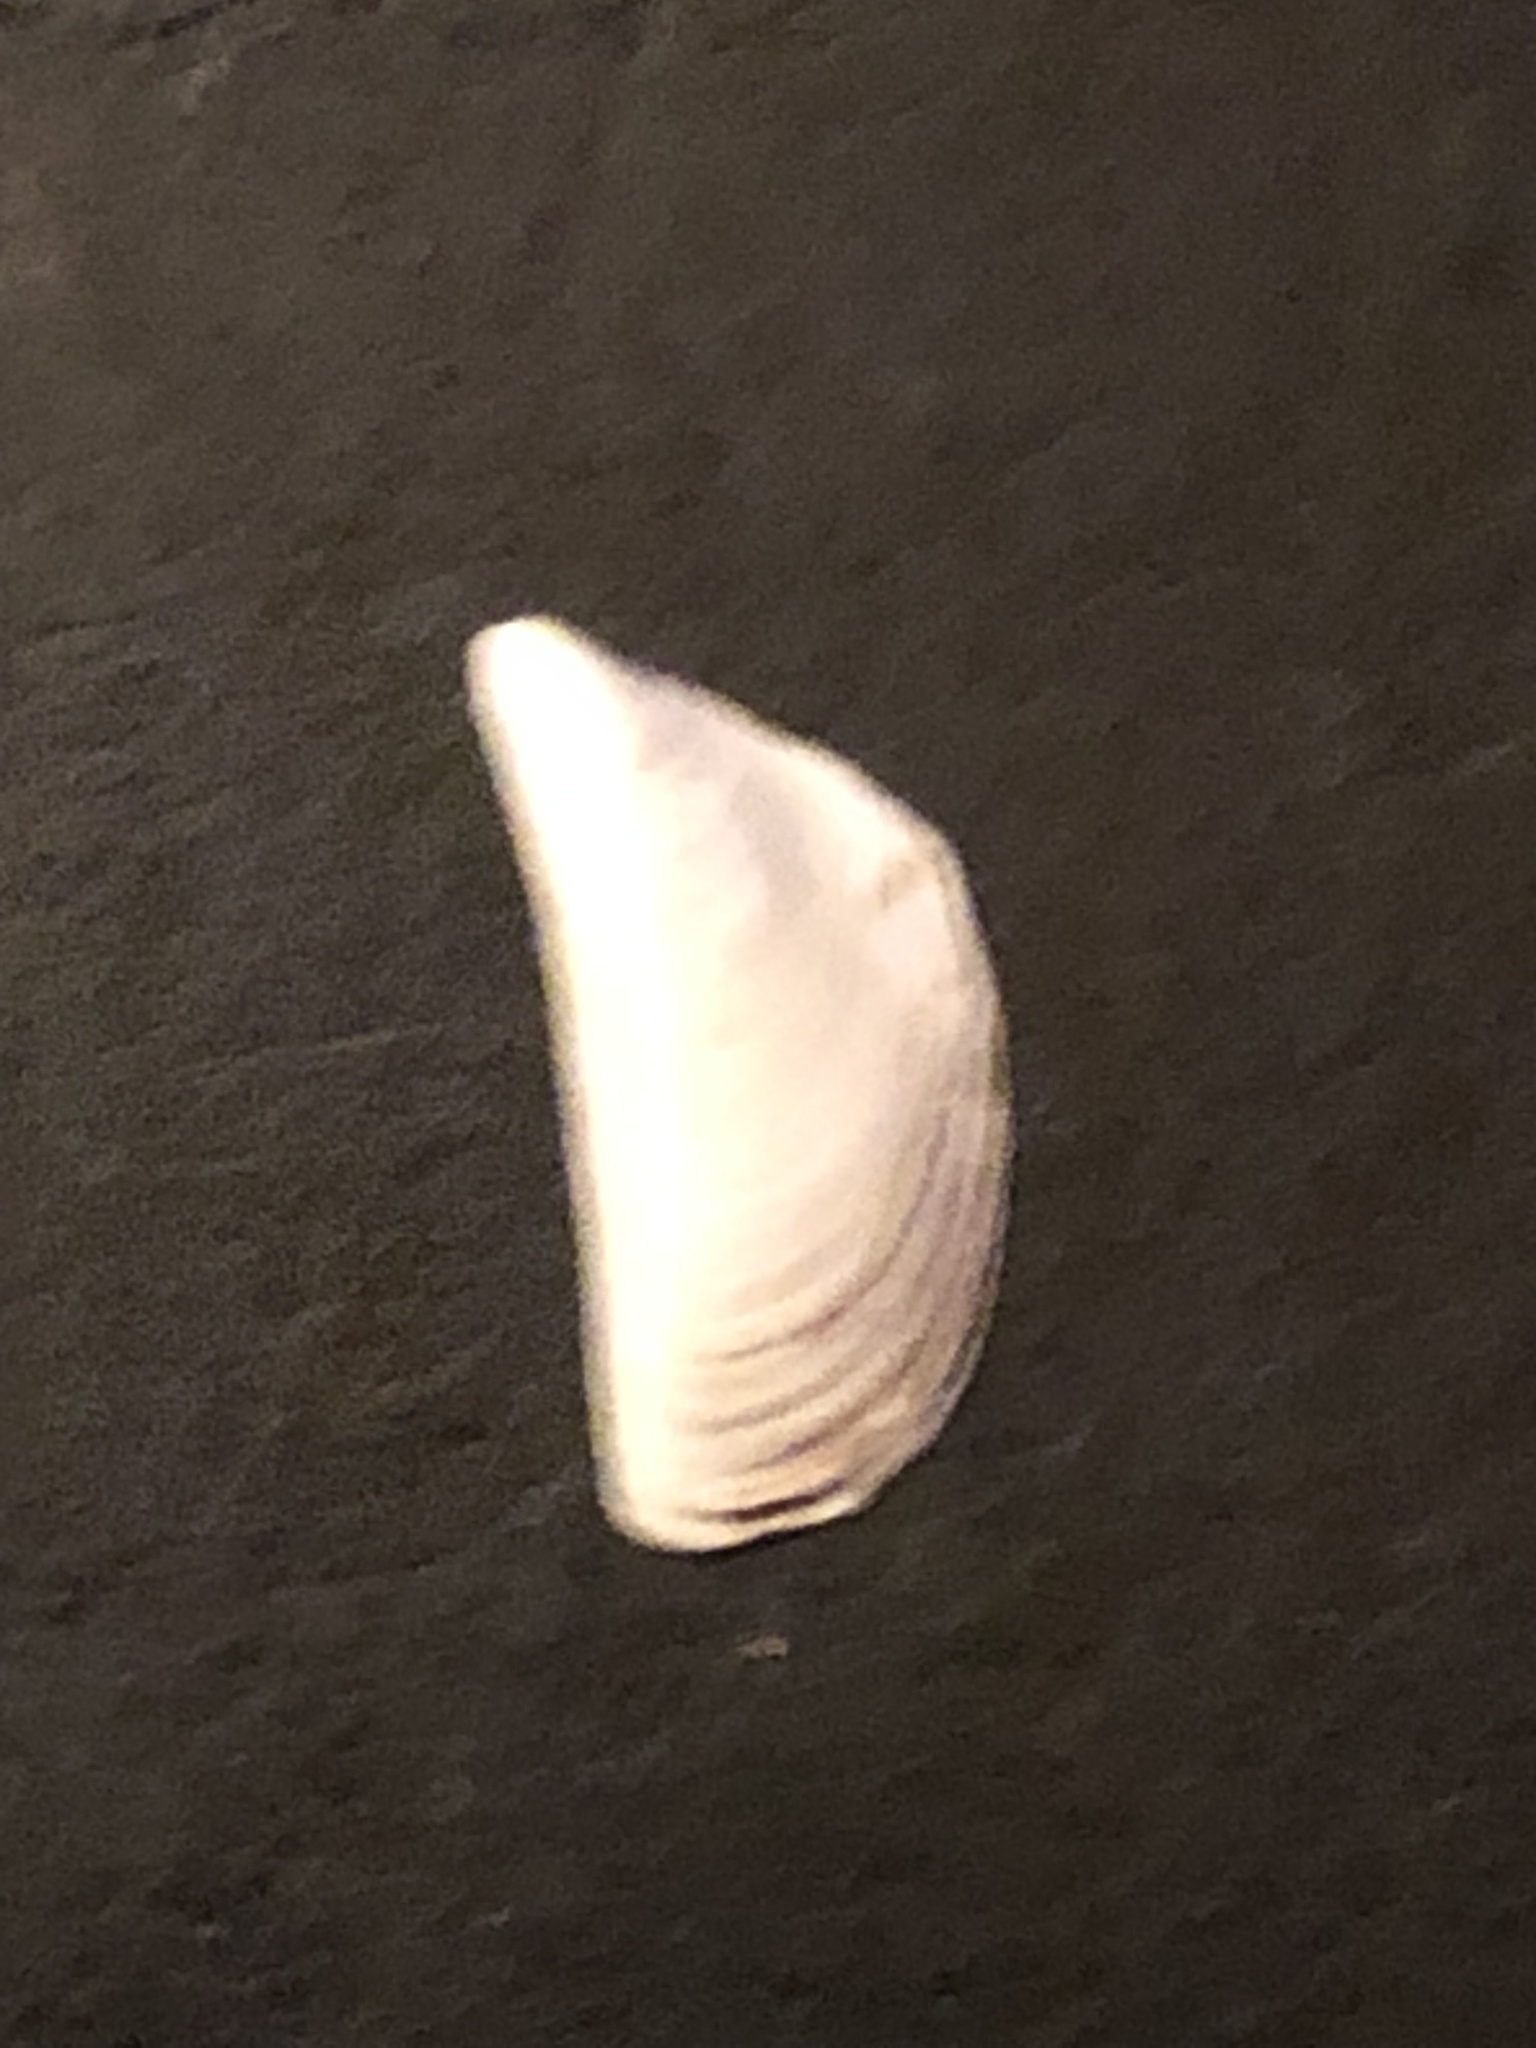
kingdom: Animalia
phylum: Mollusca
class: Bivalvia
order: Myida
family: Dreissenidae
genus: Dreissena
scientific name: Dreissena polymorpha
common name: Zebra mussel
